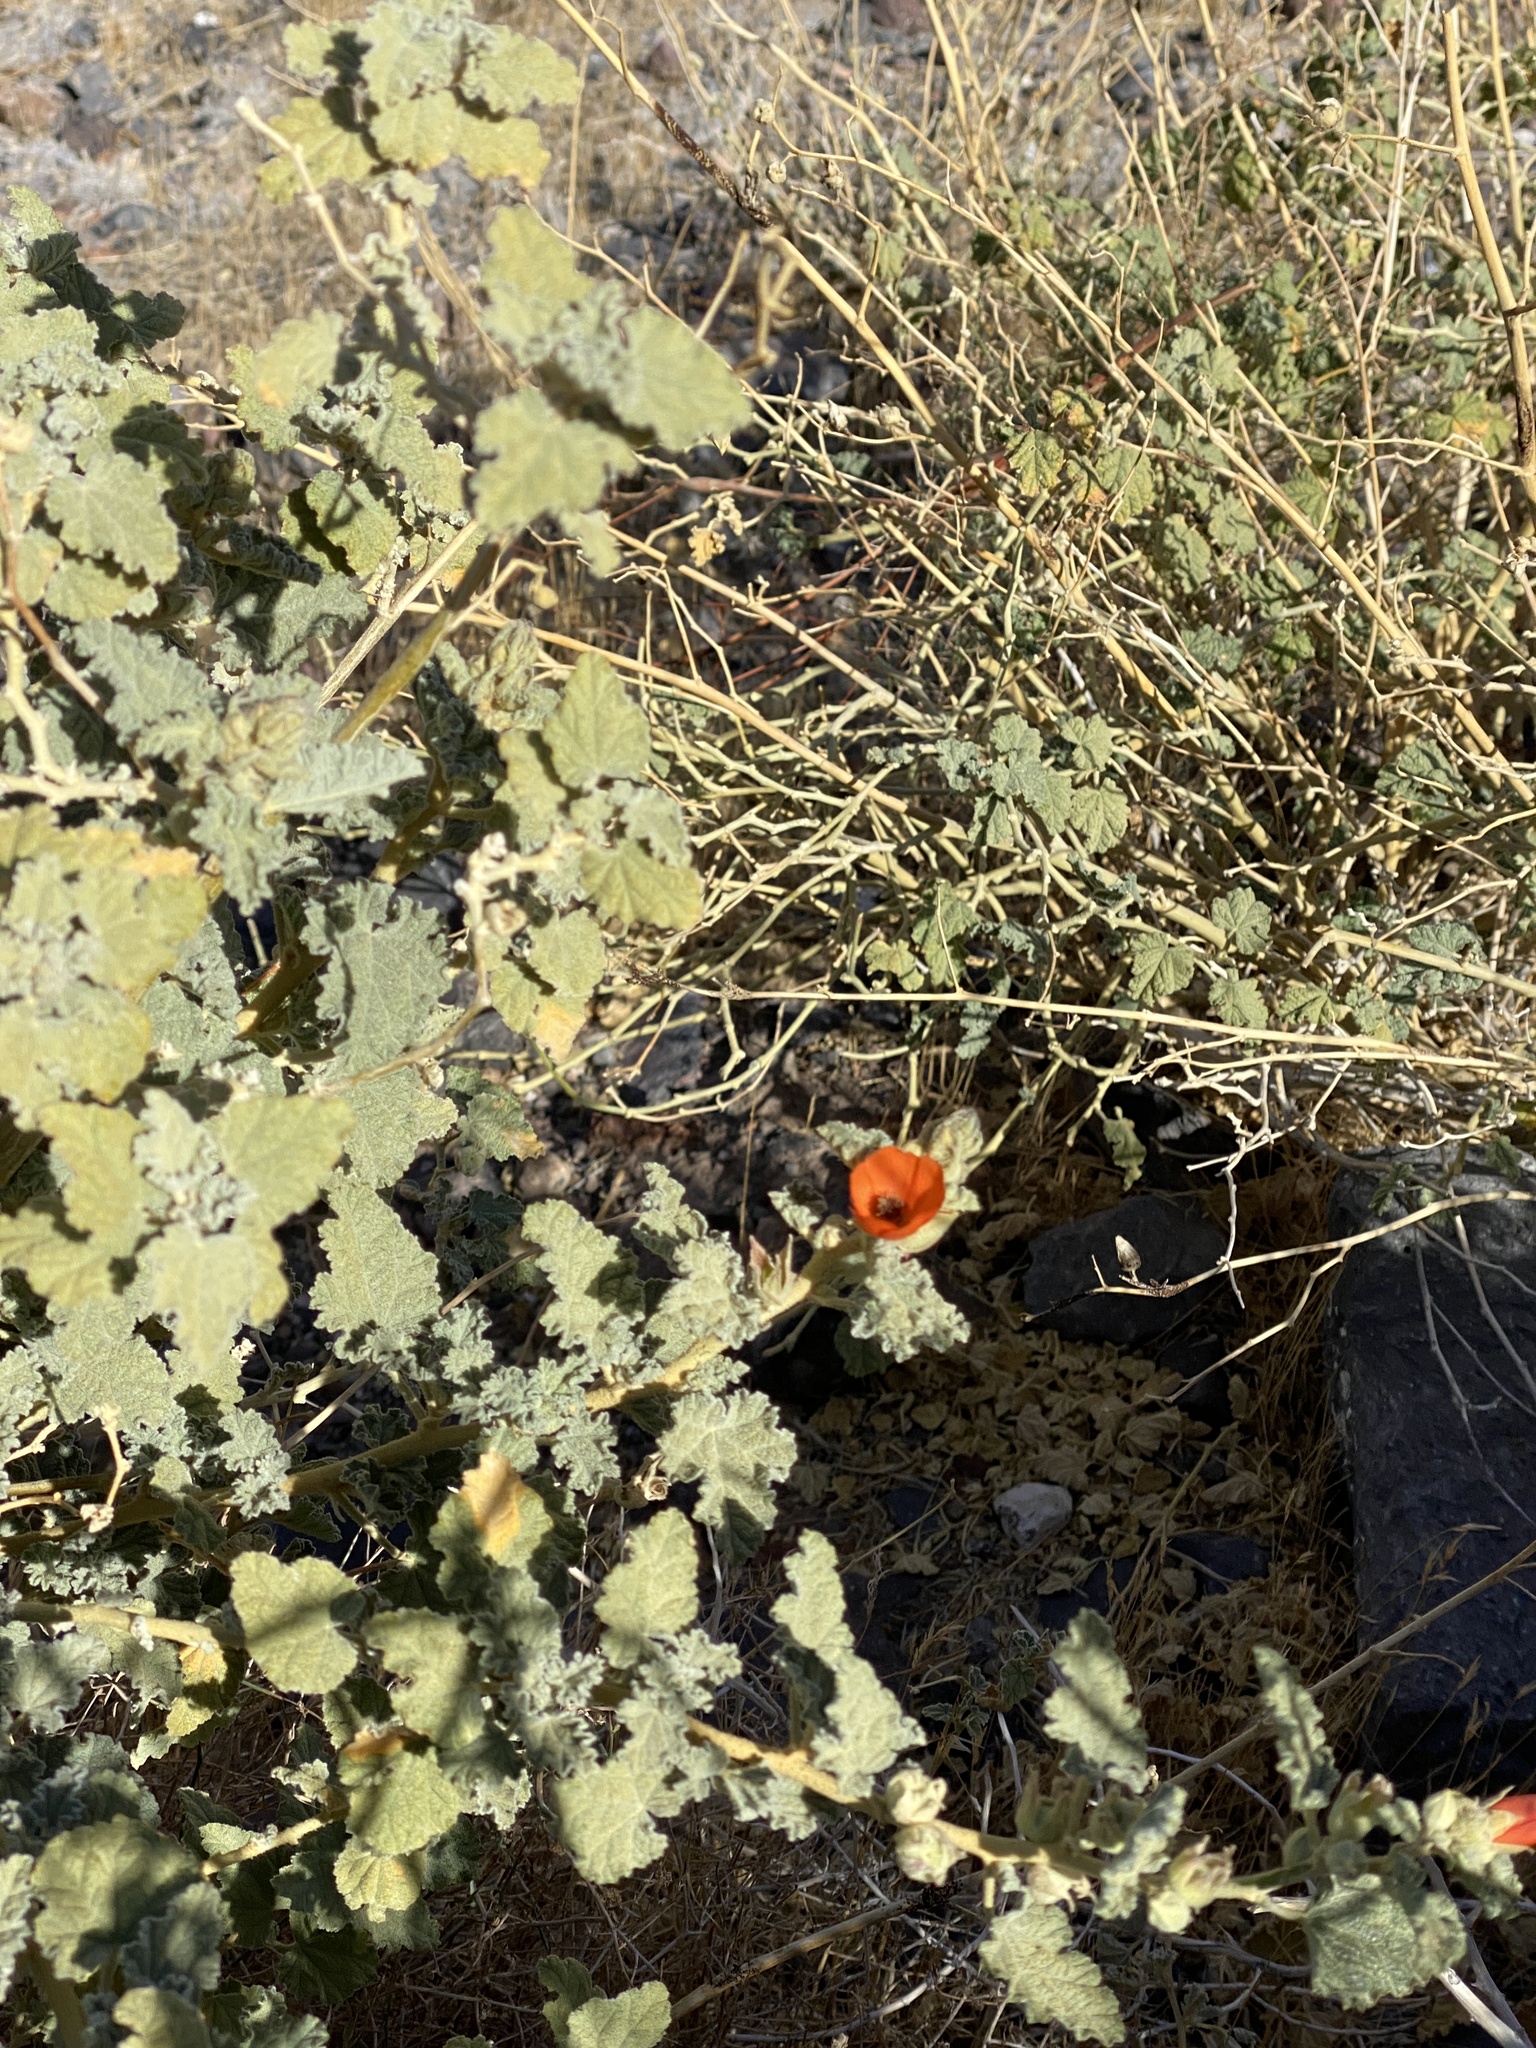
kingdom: Plantae
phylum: Tracheophyta
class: Magnoliopsida
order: Malvales
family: Malvaceae
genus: Sphaeralcea
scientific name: Sphaeralcea ambigua
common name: Apricot globe-mallow
